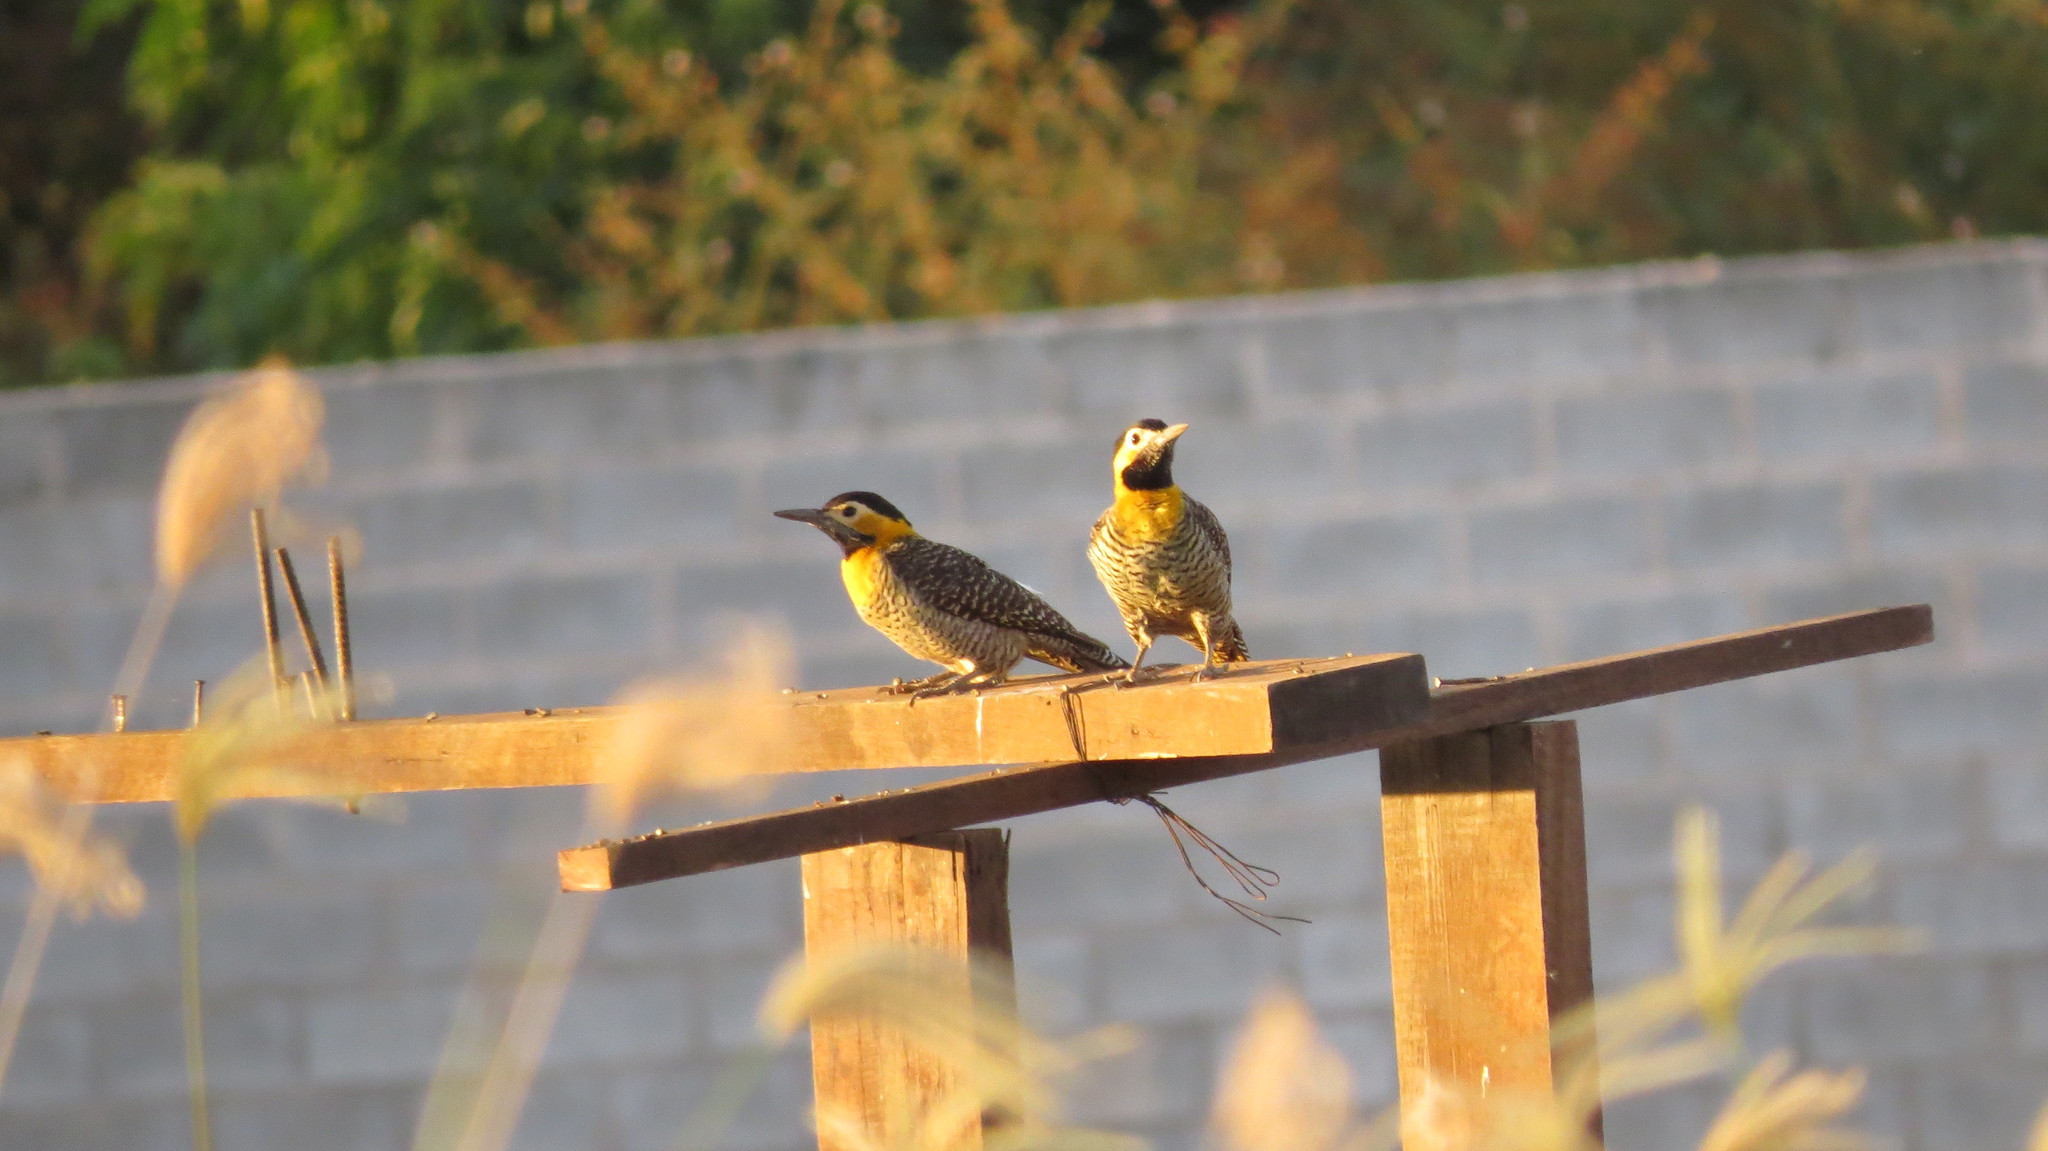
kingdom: Animalia
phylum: Chordata
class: Aves
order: Piciformes
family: Picidae
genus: Colaptes
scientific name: Colaptes campestris
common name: Campo flicker
